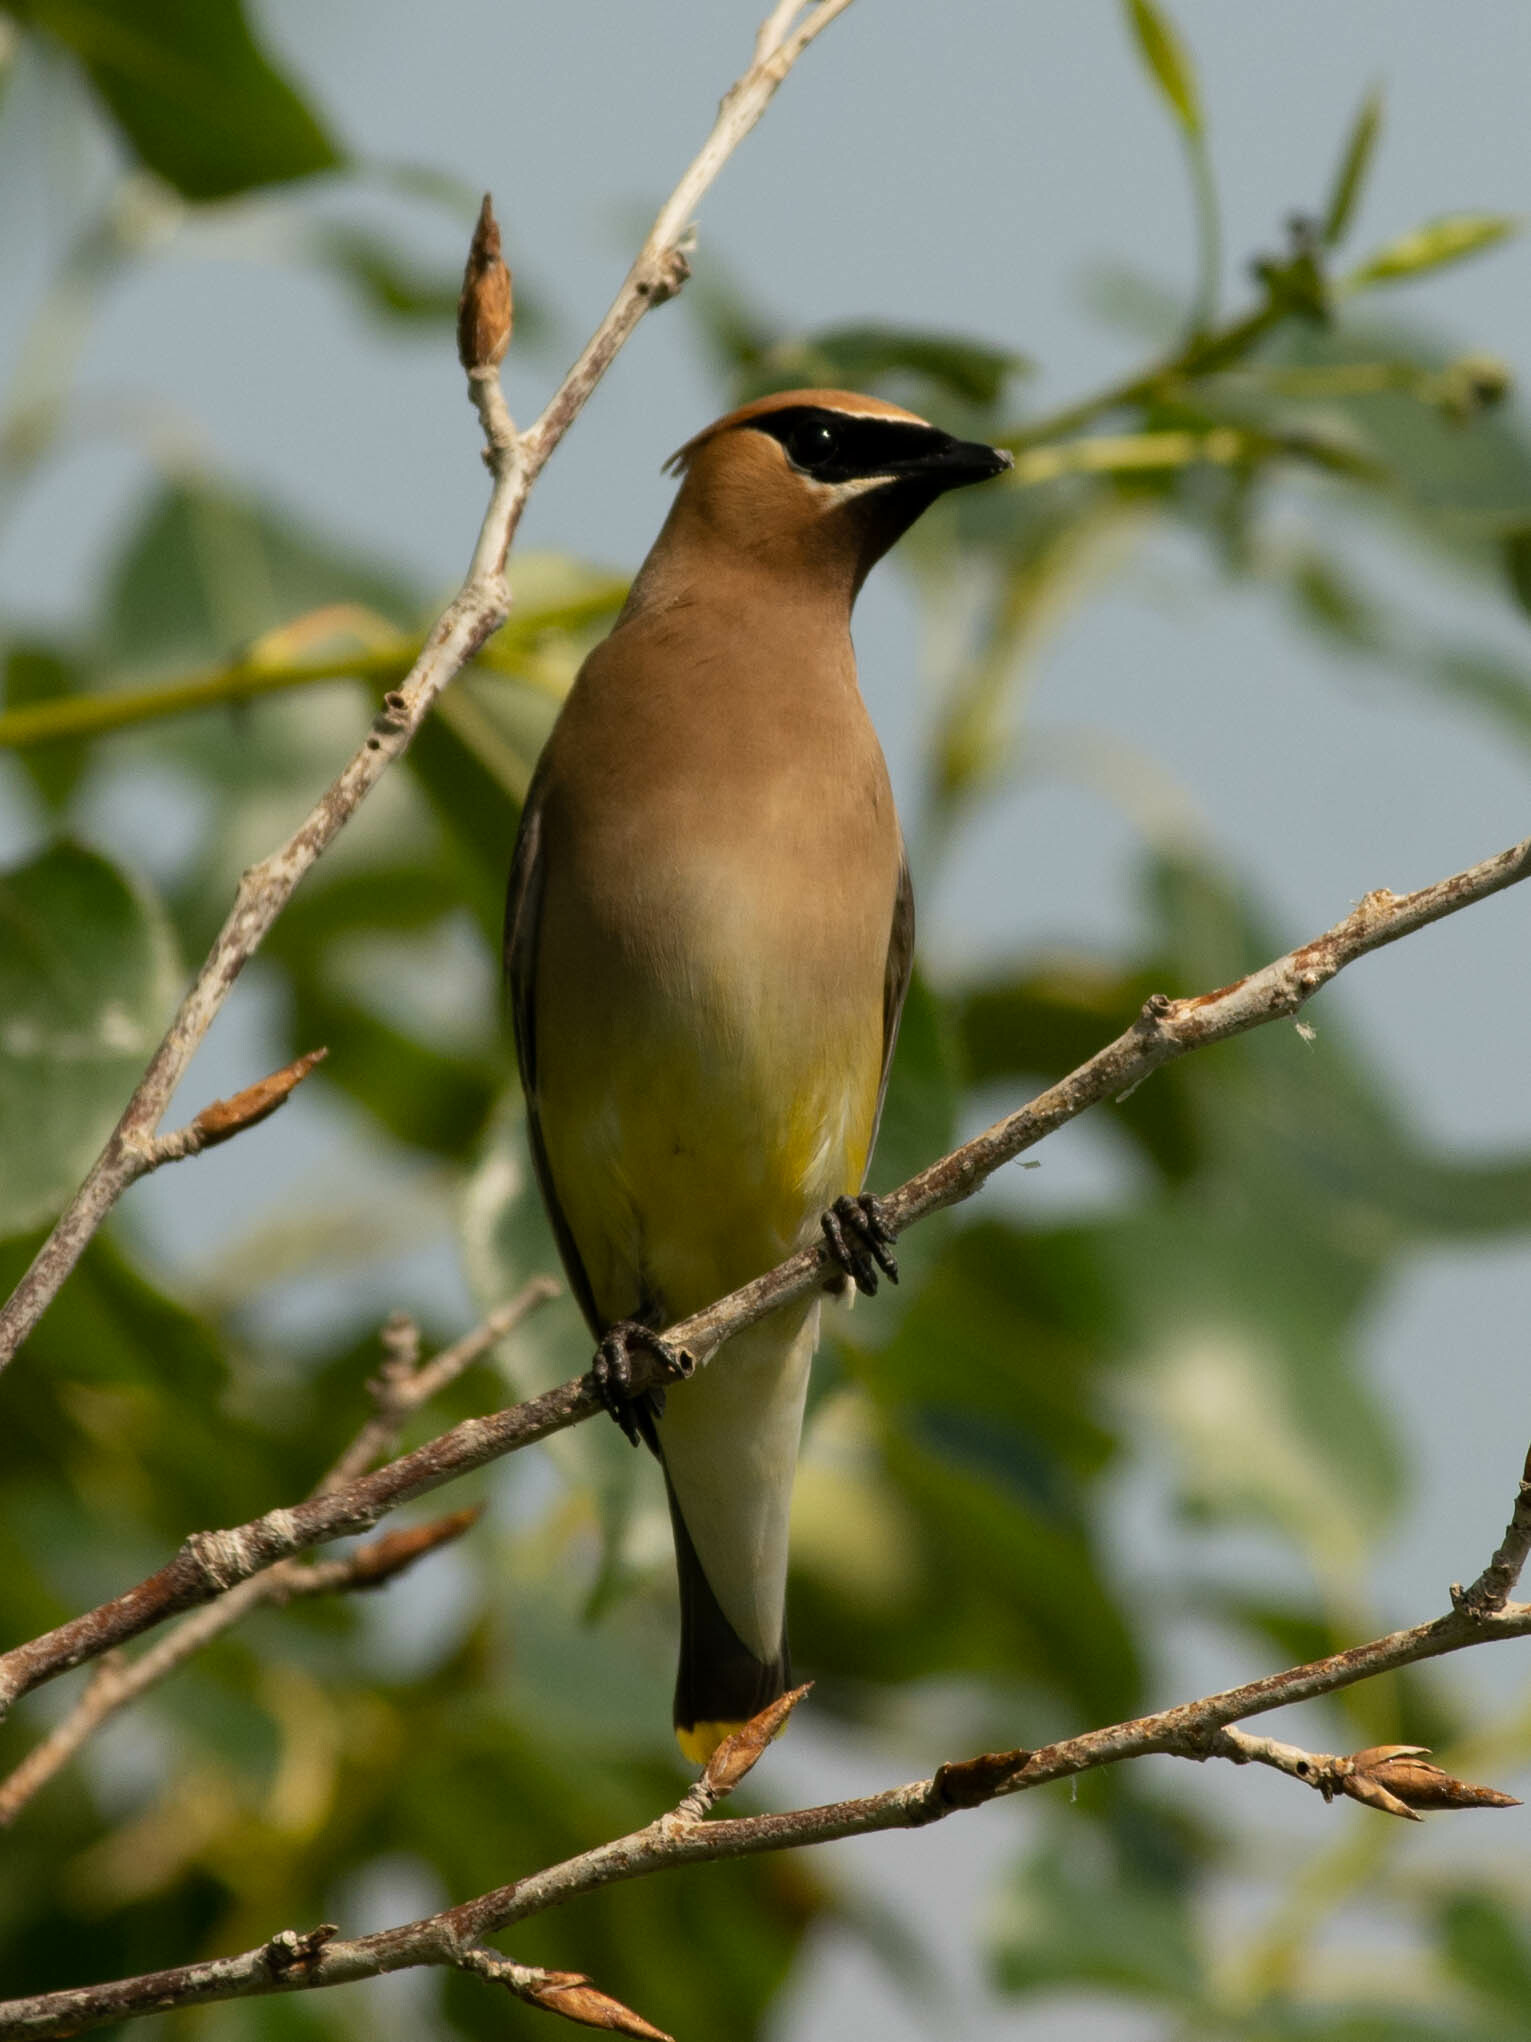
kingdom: Animalia
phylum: Chordata
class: Aves
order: Passeriformes
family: Bombycillidae
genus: Bombycilla
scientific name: Bombycilla cedrorum
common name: Cedar waxwing
